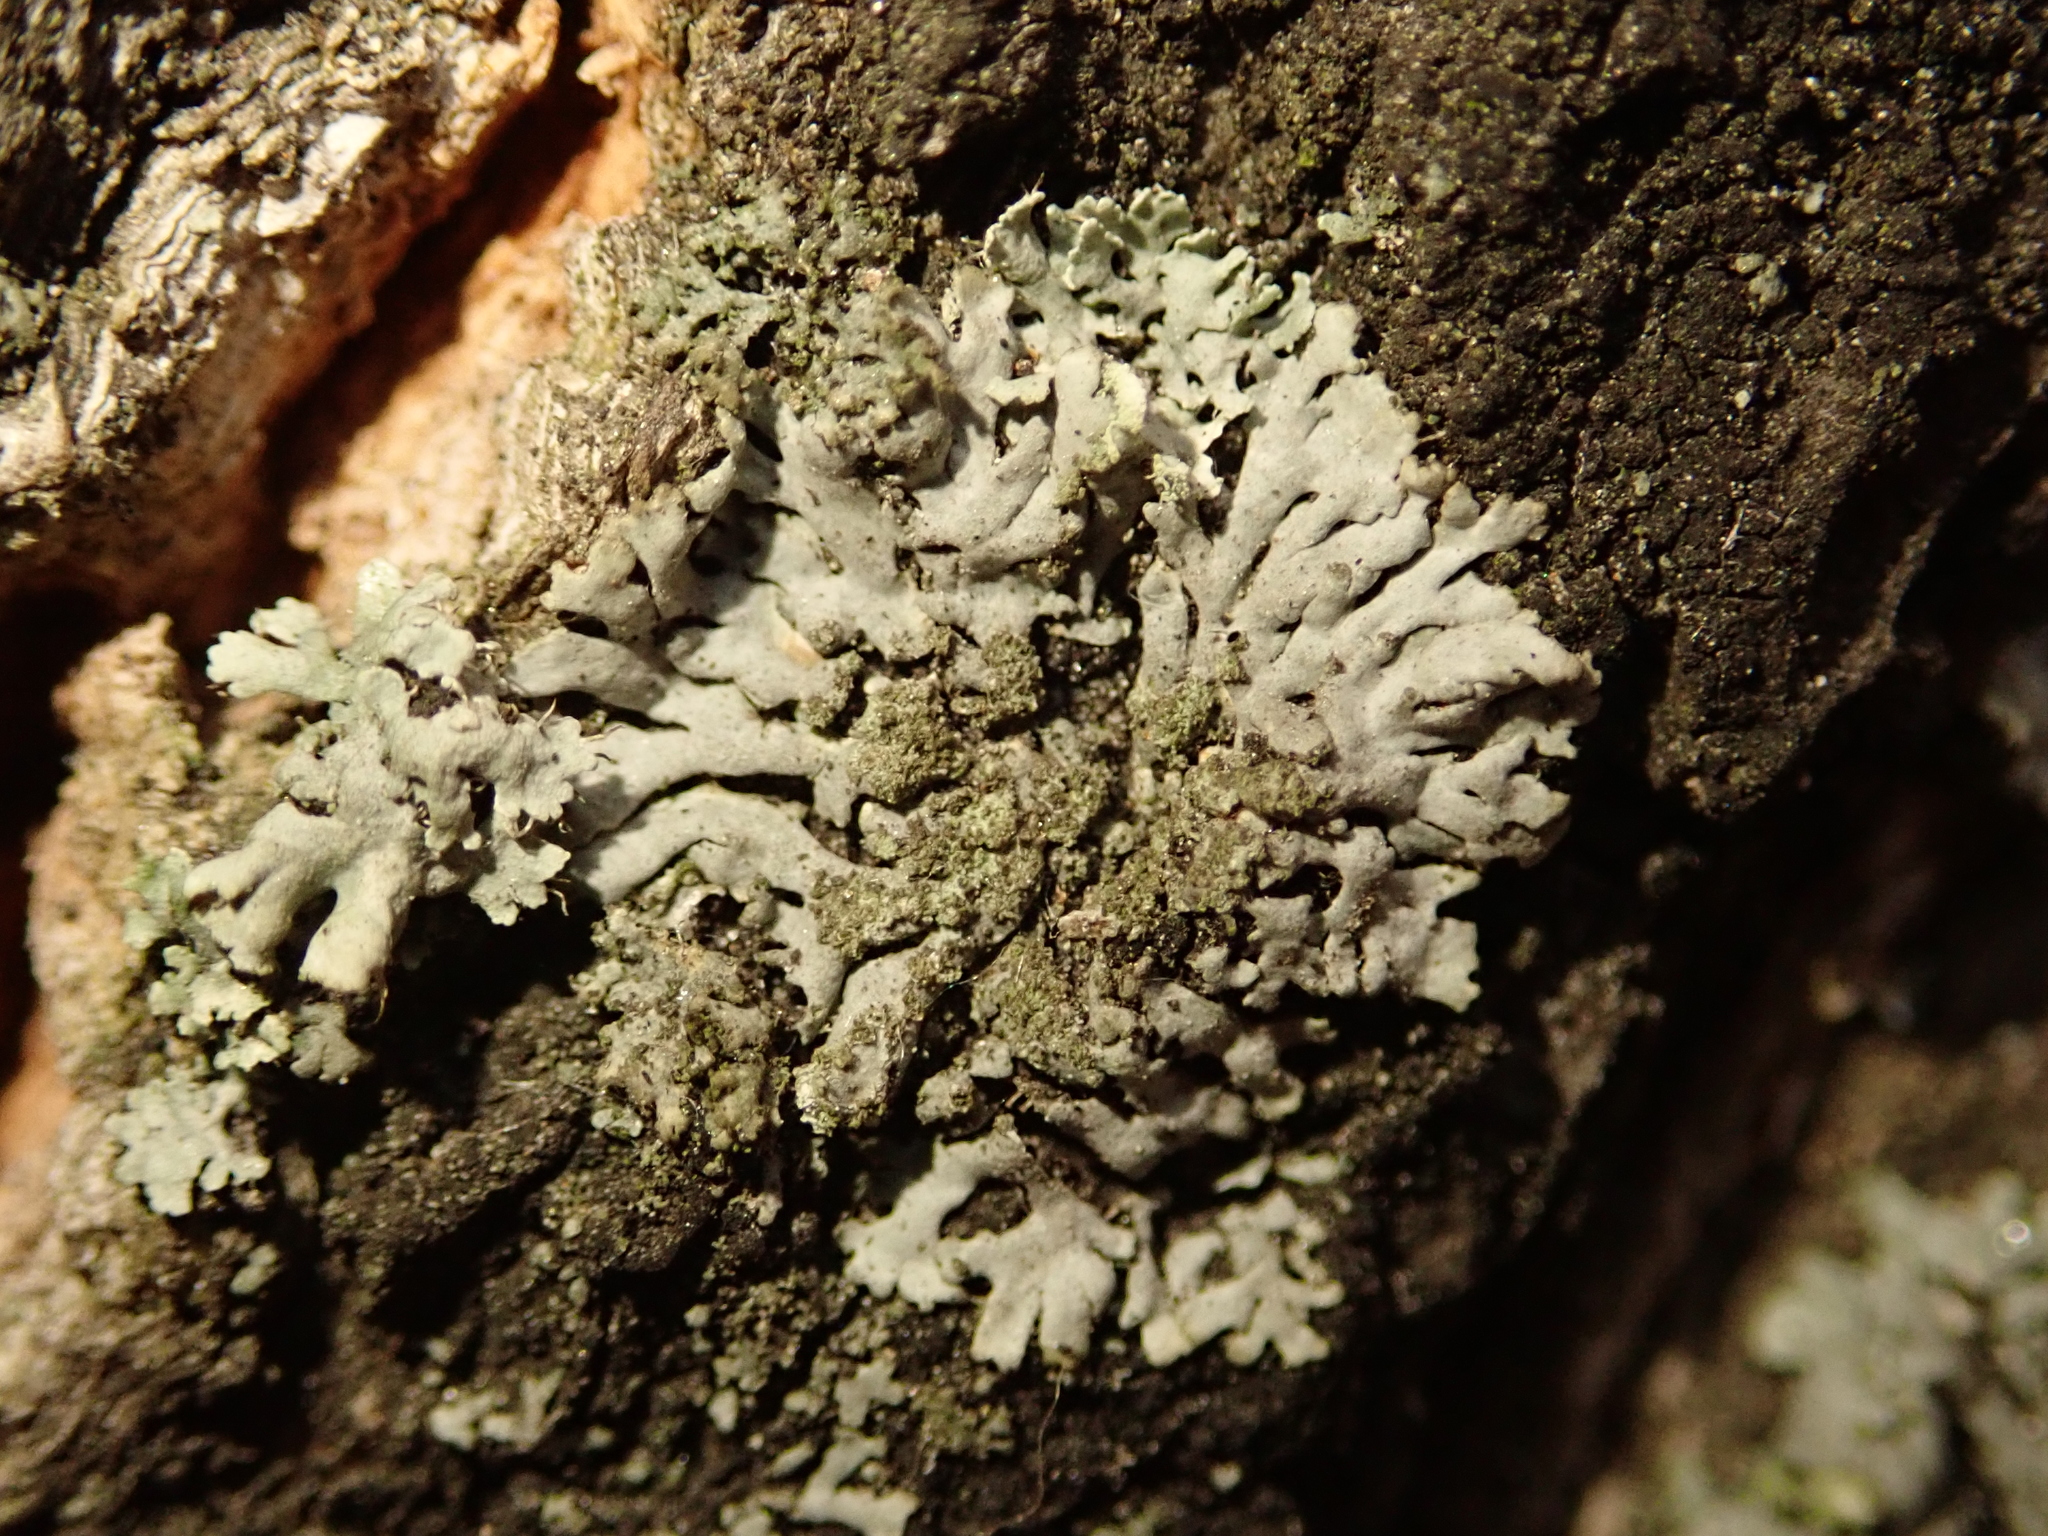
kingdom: Fungi
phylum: Ascomycota
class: Lecanoromycetes
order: Caliciales
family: Physciaceae
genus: Phaeophyscia
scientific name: Phaeophyscia orbicularis
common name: Mealy shadow lichen
